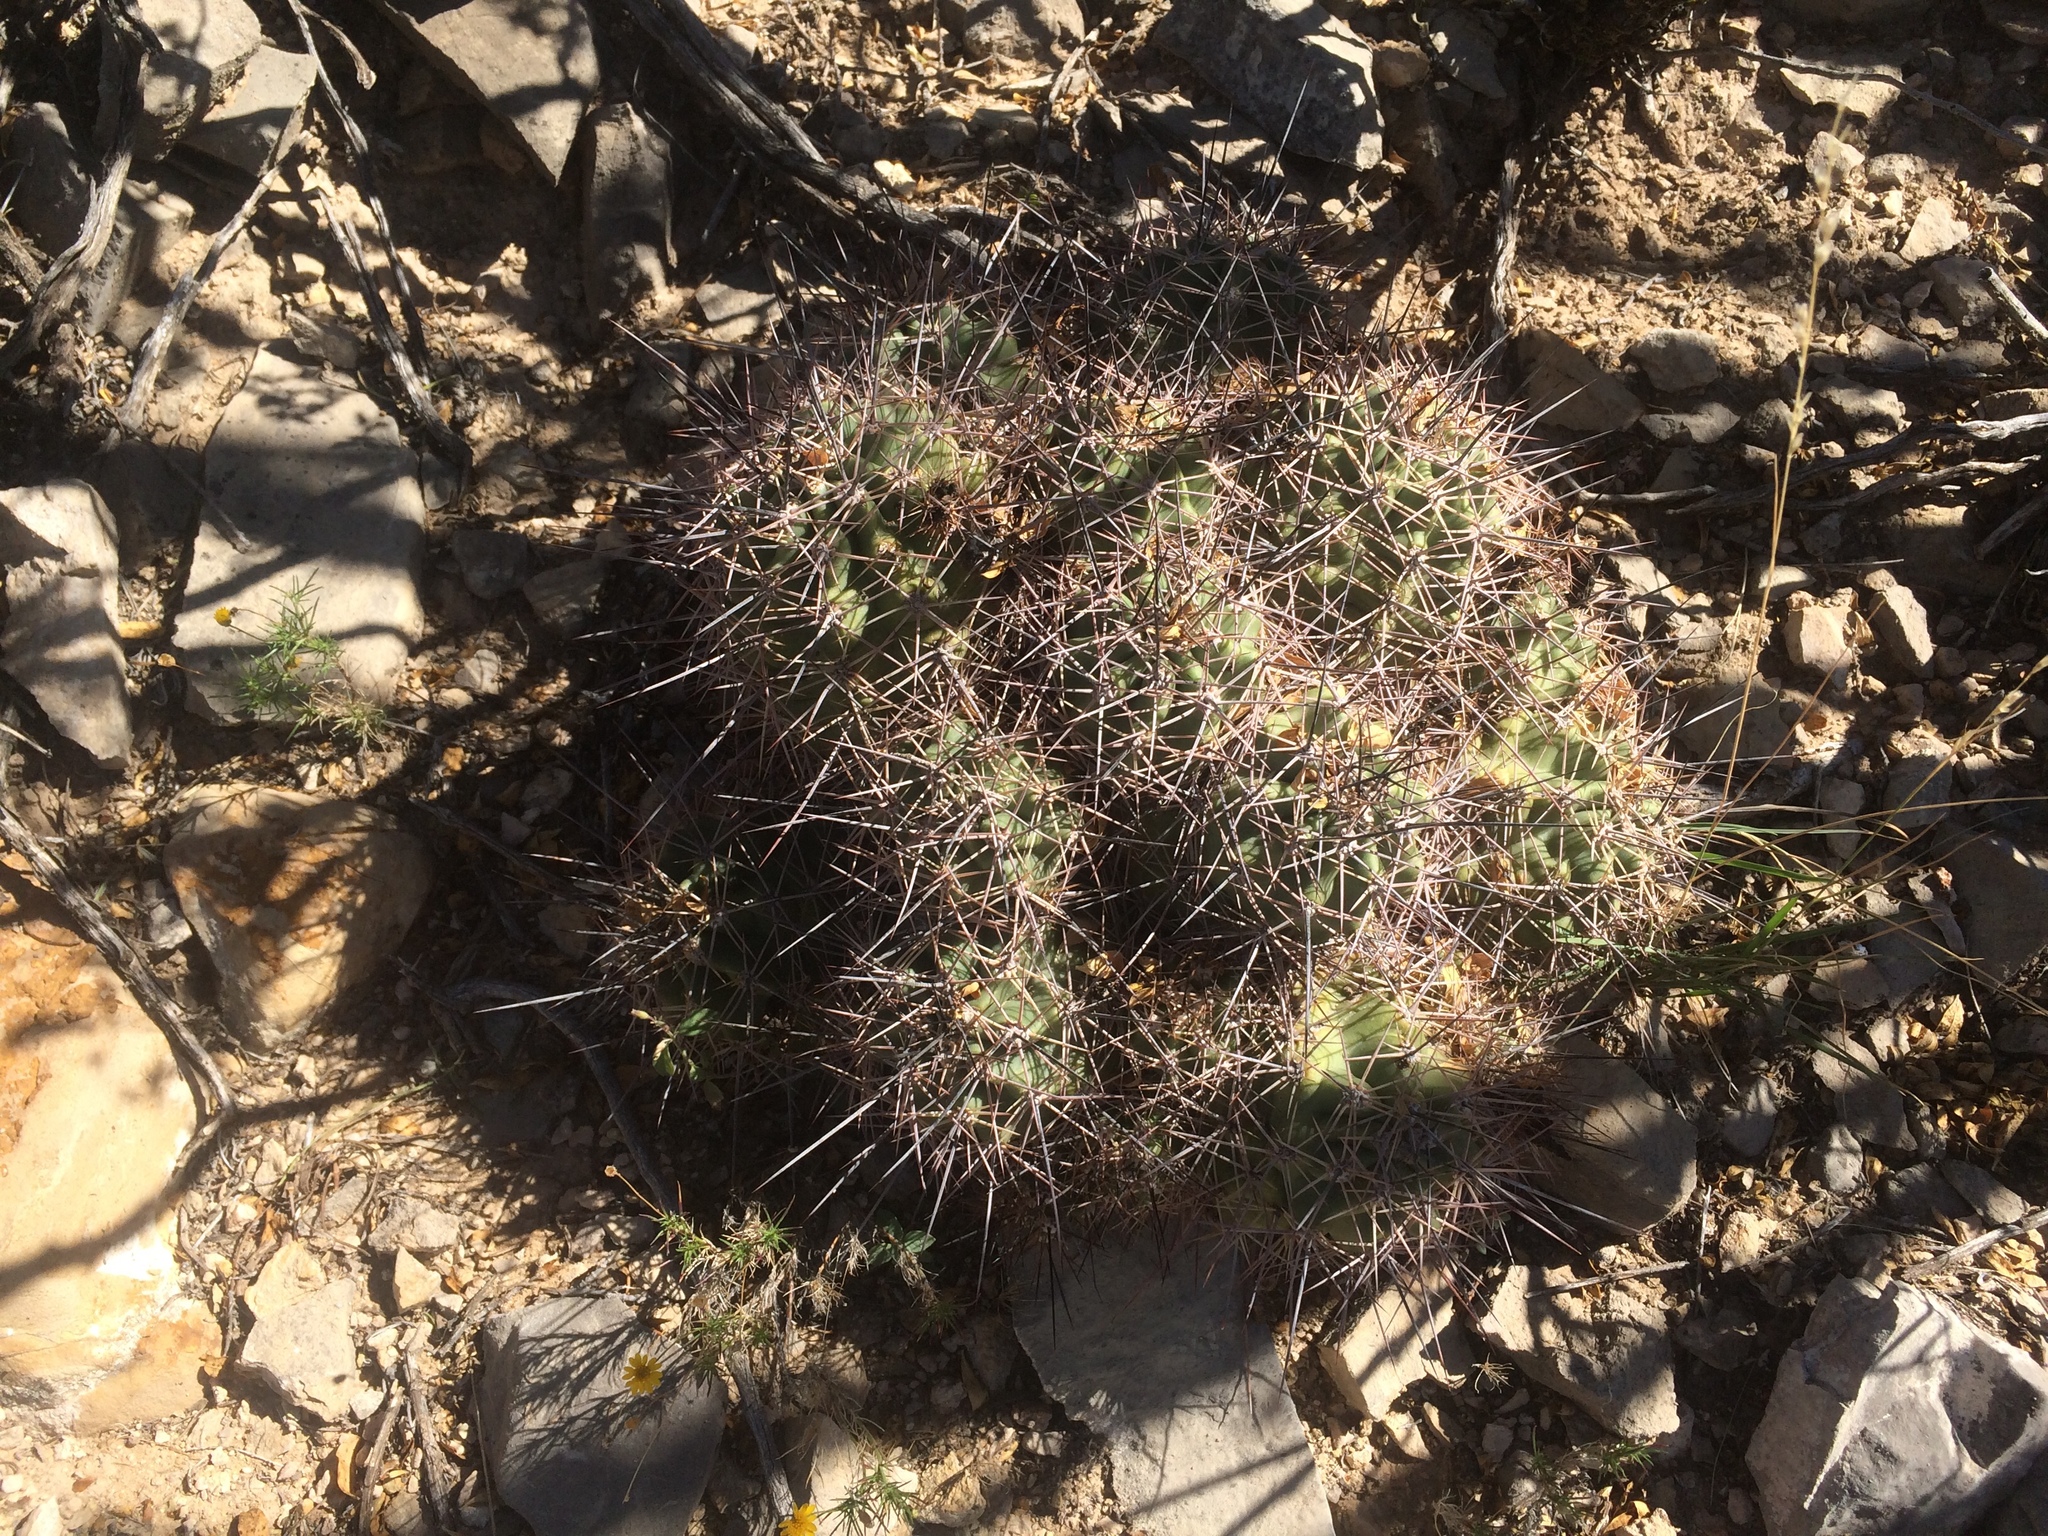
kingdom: Plantae
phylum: Tracheophyta
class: Magnoliopsida
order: Caryophyllales
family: Cactaceae
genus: Echinocereus
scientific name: Echinocereus coccineus
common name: Scarlet hedgehog cactus
